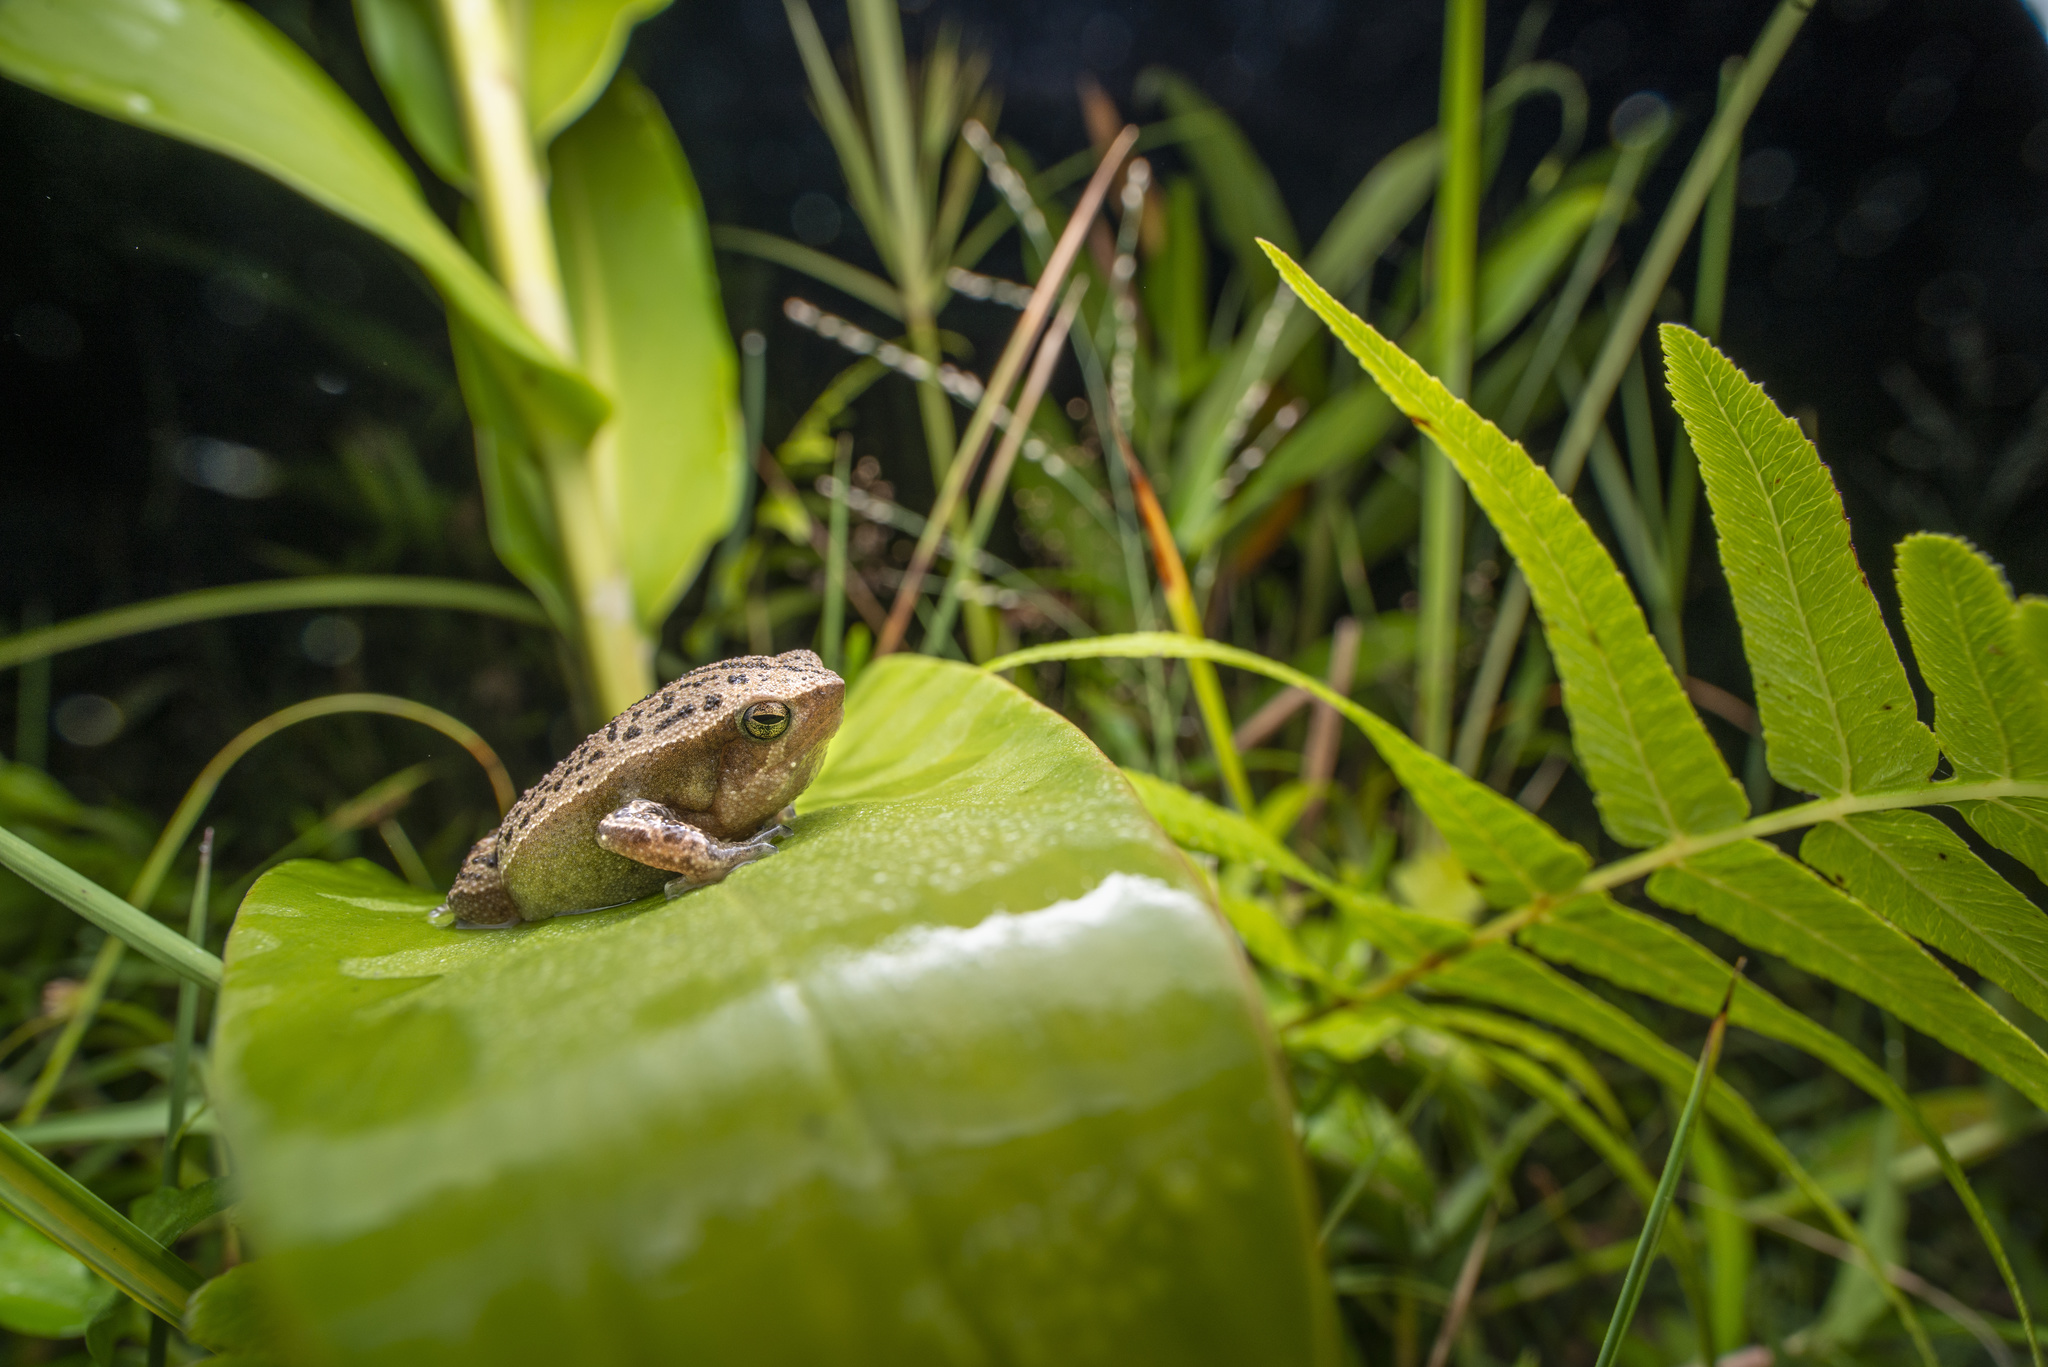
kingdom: Animalia
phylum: Chordata
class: Amphibia
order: Anura
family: Microhylidae
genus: Kalophrynus
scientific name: Kalophrynus interlineatus
